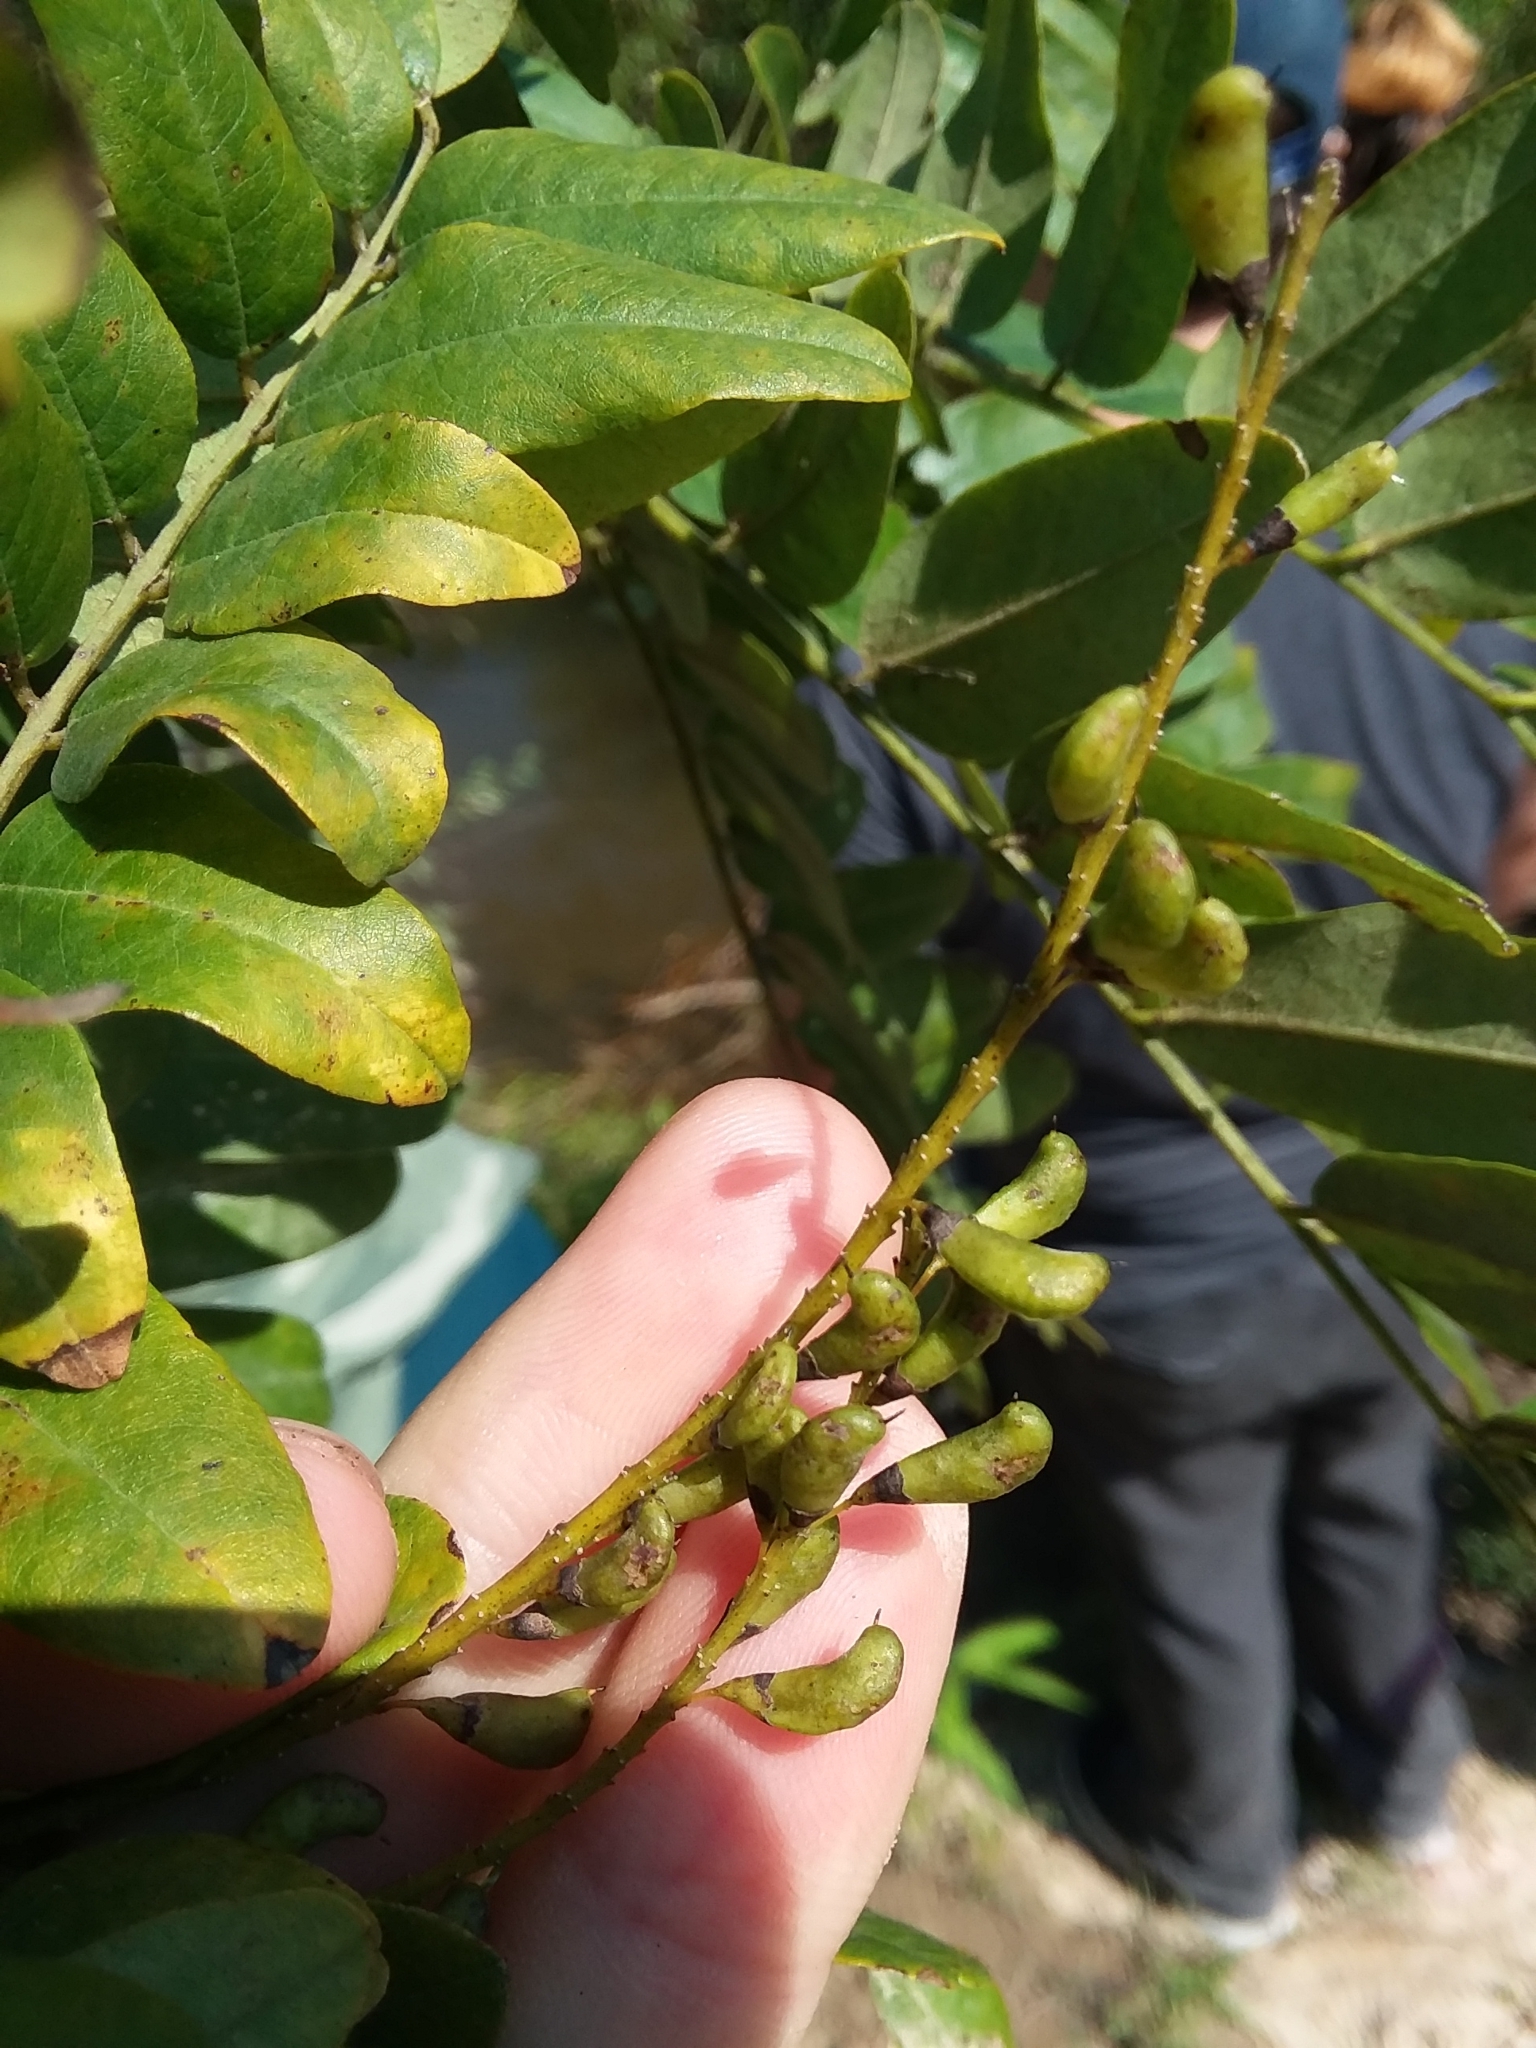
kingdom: Plantae
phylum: Tracheophyta
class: Magnoliopsida
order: Fabales
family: Fabaceae
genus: Amorpha
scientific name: Amorpha fruticosa
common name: False indigo
